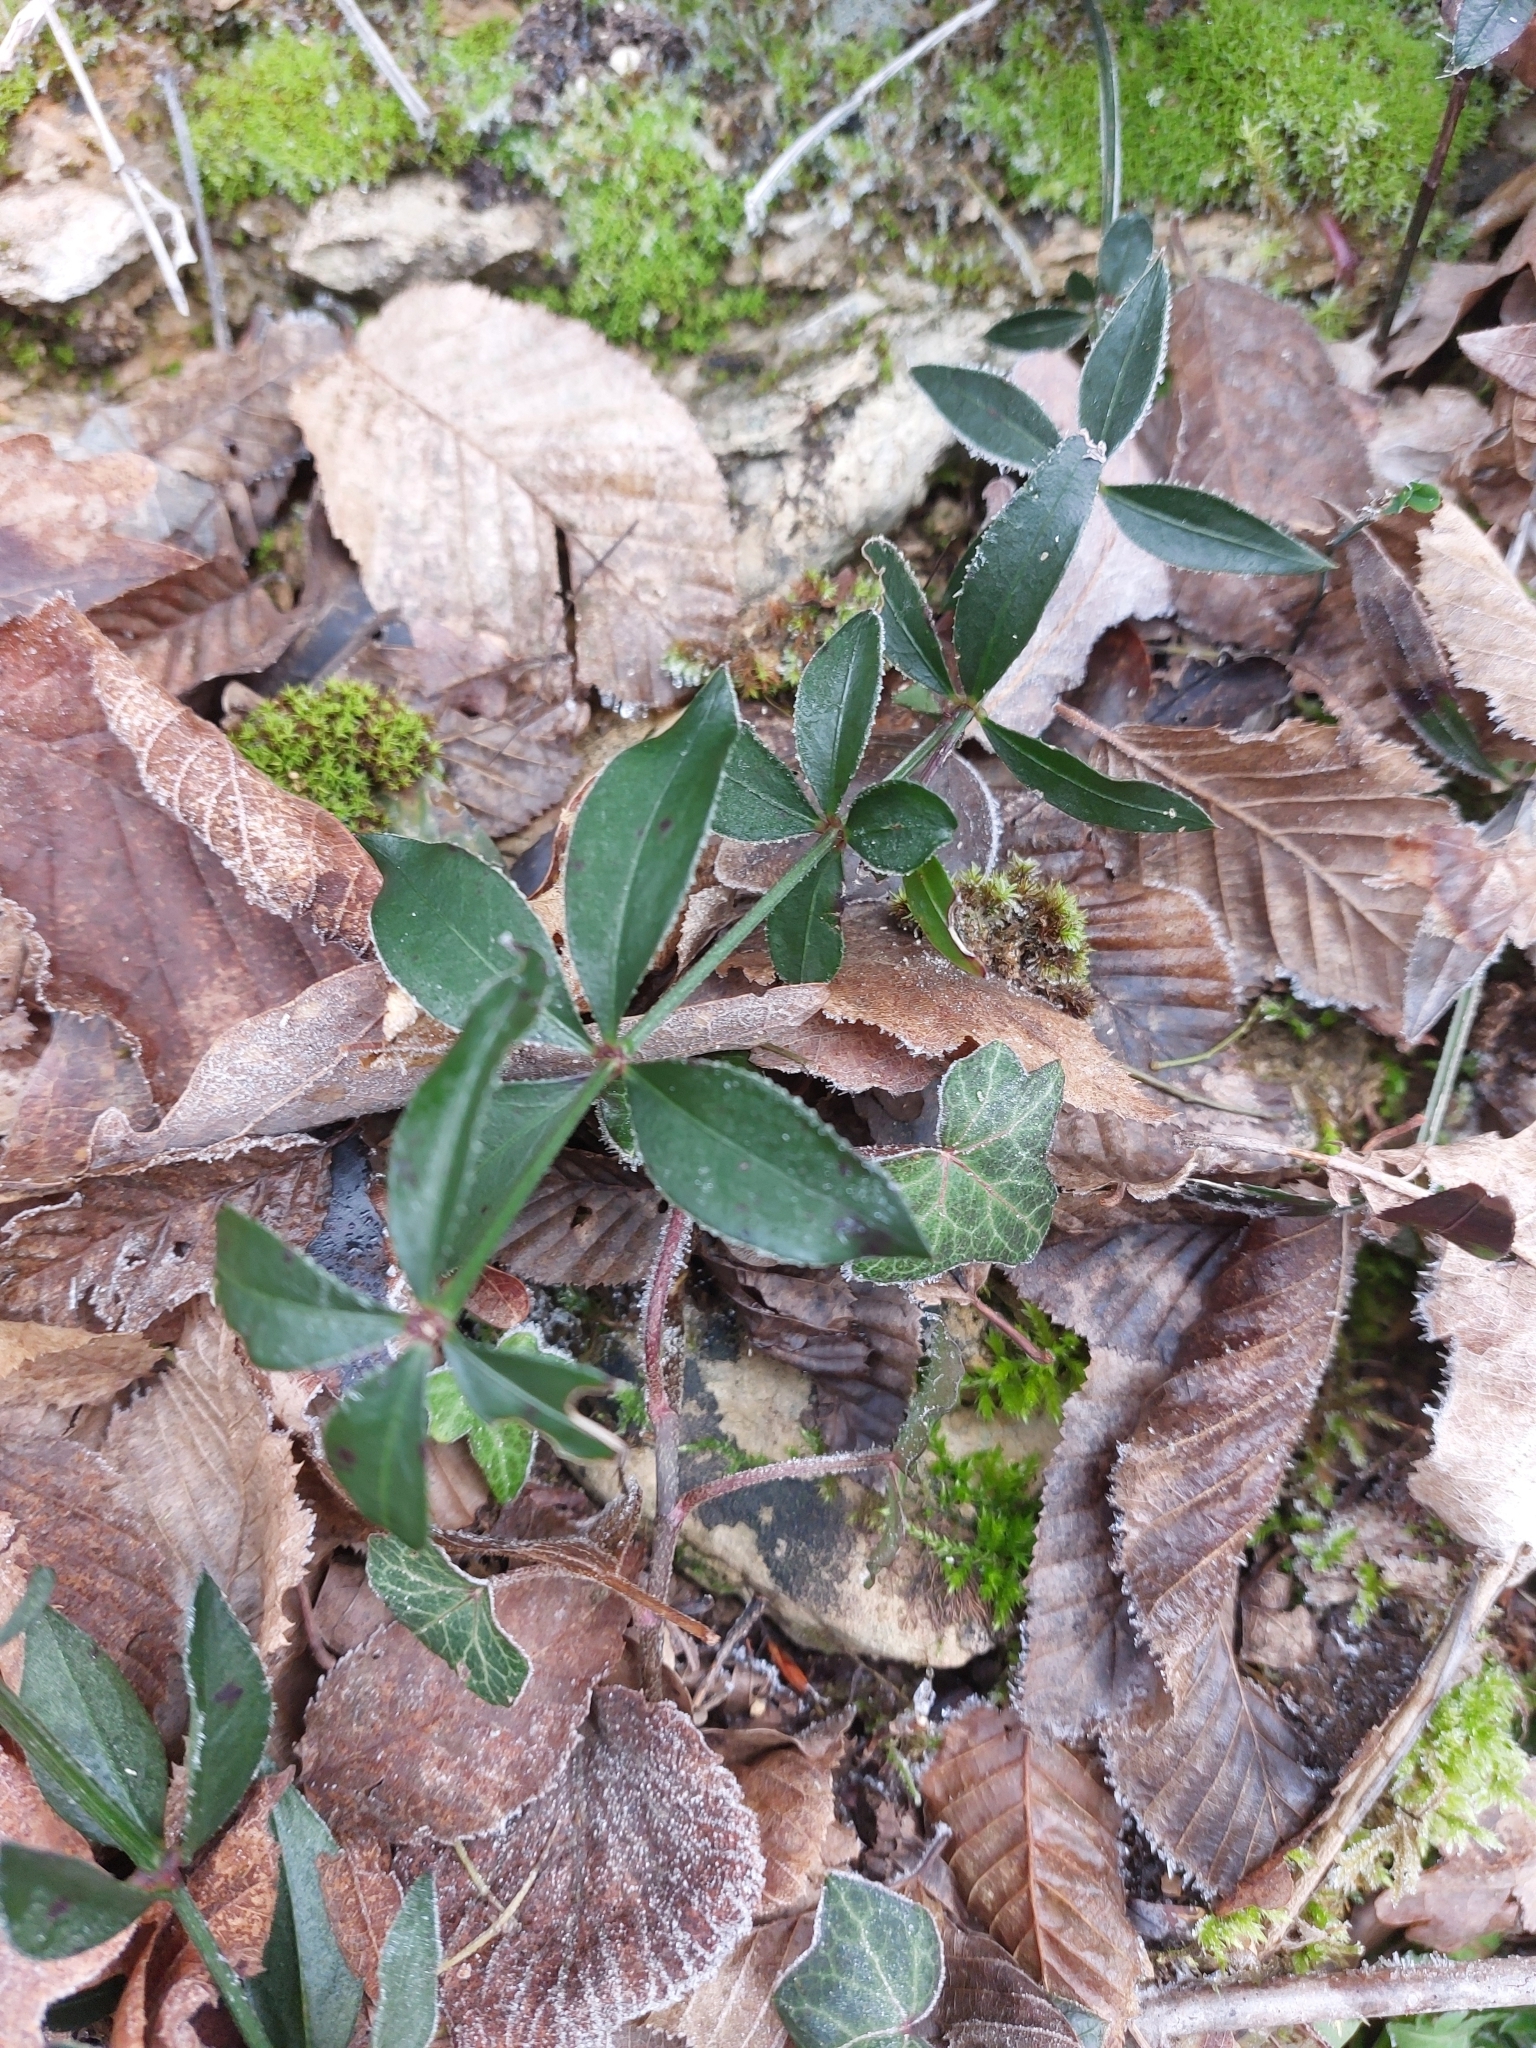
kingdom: Plantae
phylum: Tracheophyta
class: Magnoliopsida
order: Gentianales
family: Rubiaceae
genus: Rubia
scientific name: Rubia peregrina
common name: Wild madder
